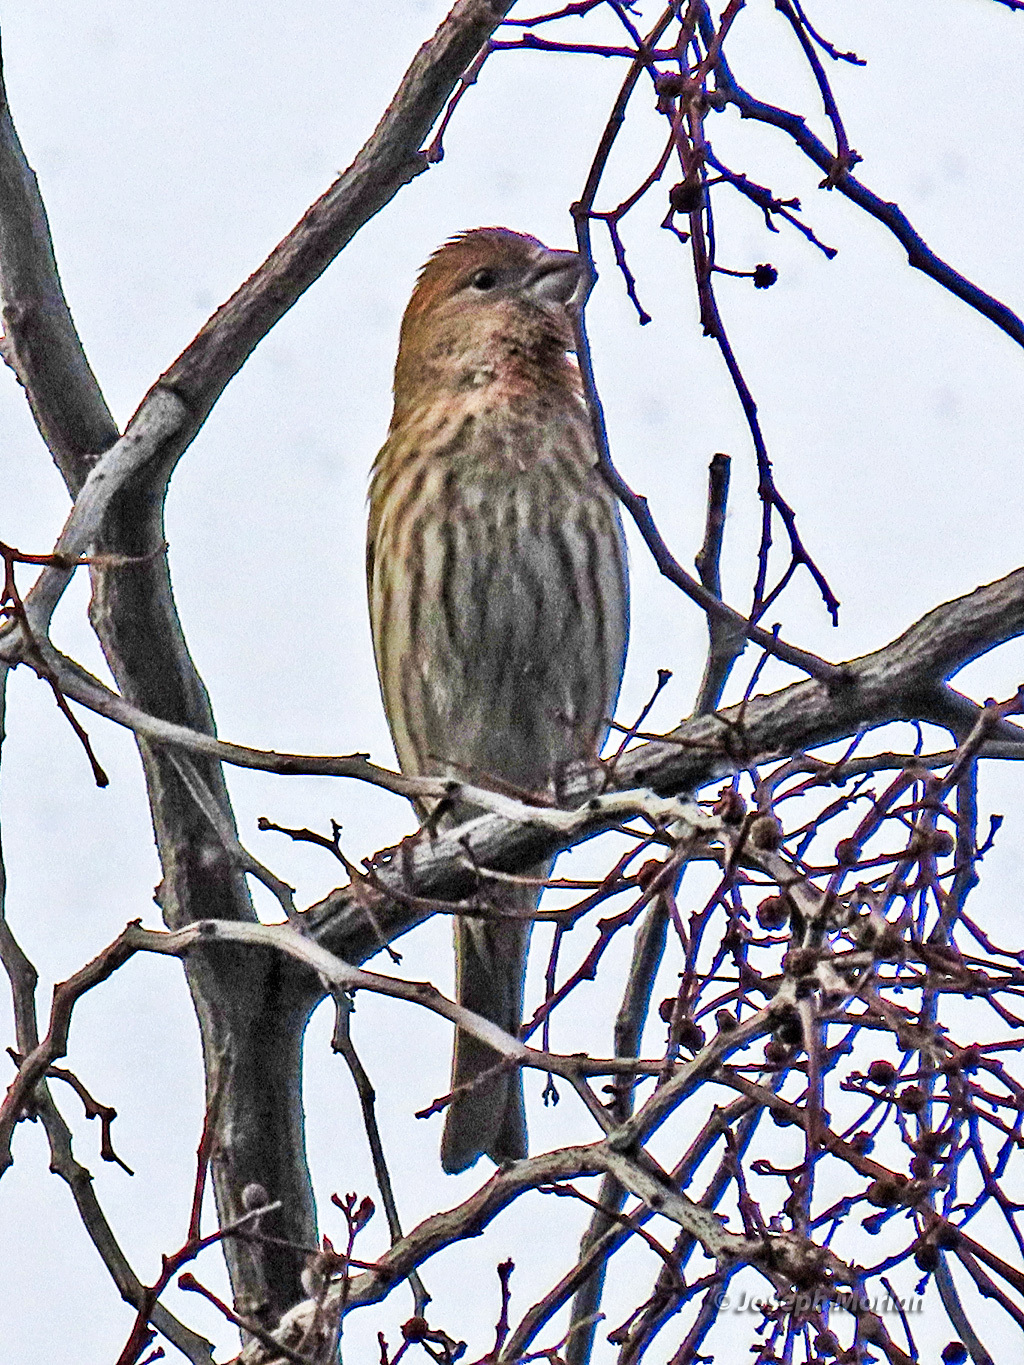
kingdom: Animalia
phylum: Chordata
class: Aves
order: Passeriformes
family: Fringillidae
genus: Haemorhous
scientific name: Haemorhous mexicanus
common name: House finch
